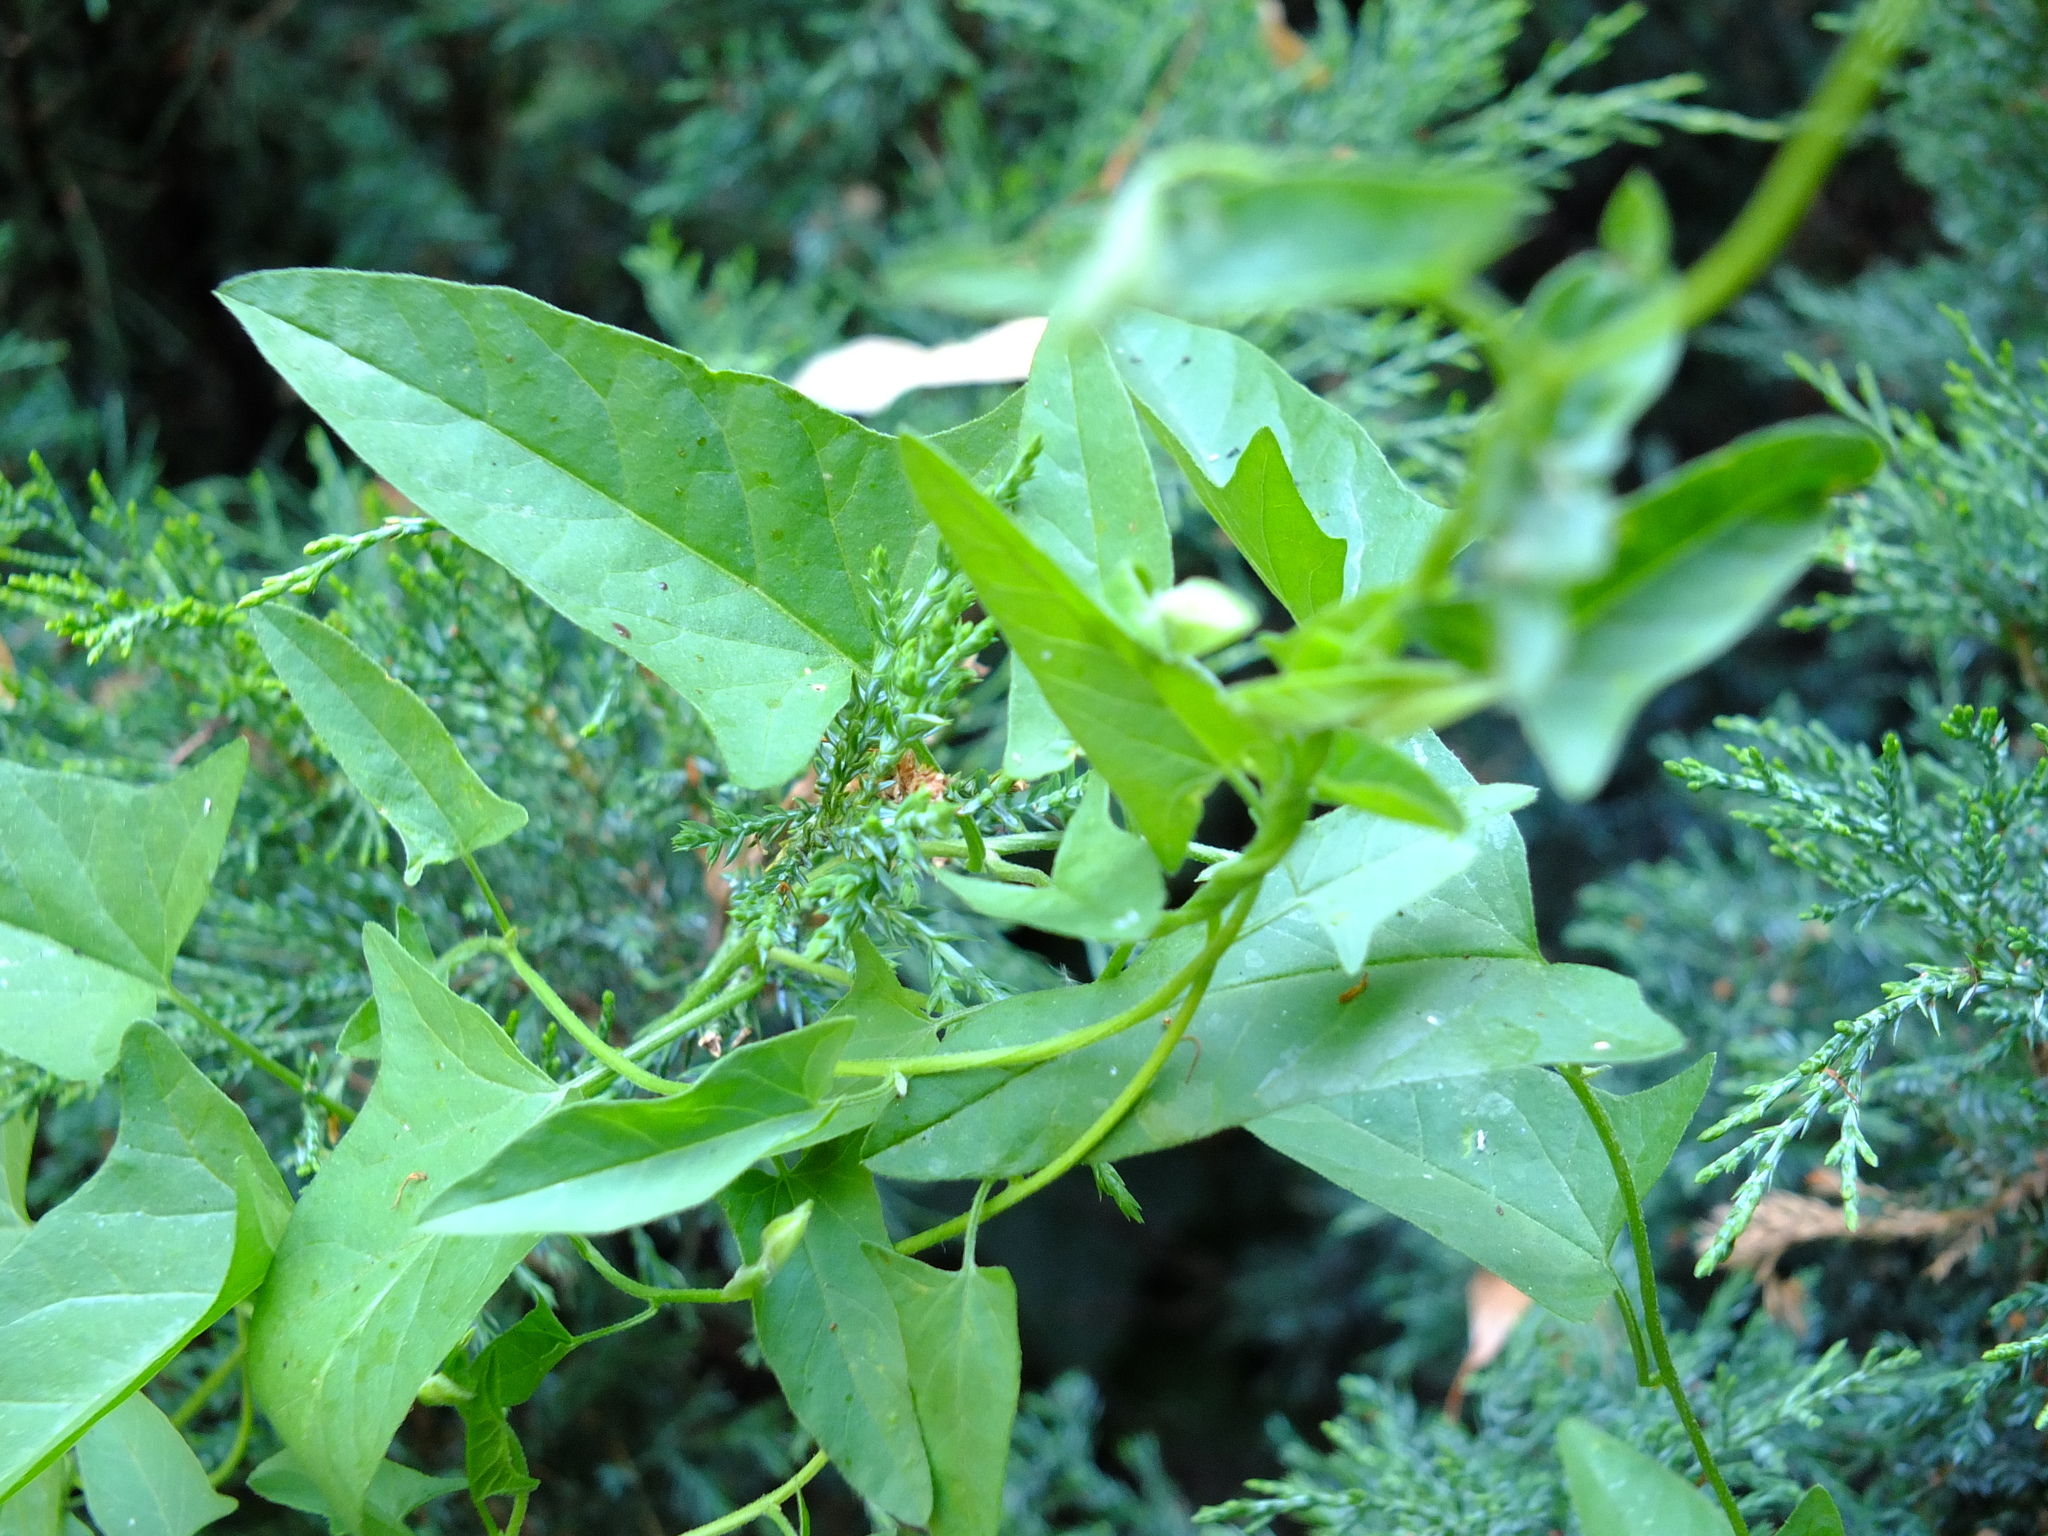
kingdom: Plantae
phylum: Tracheophyta
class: Magnoliopsida
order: Solanales
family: Convolvulaceae
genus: Convolvulus
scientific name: Convolvulus arvensis
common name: Field bindweed
